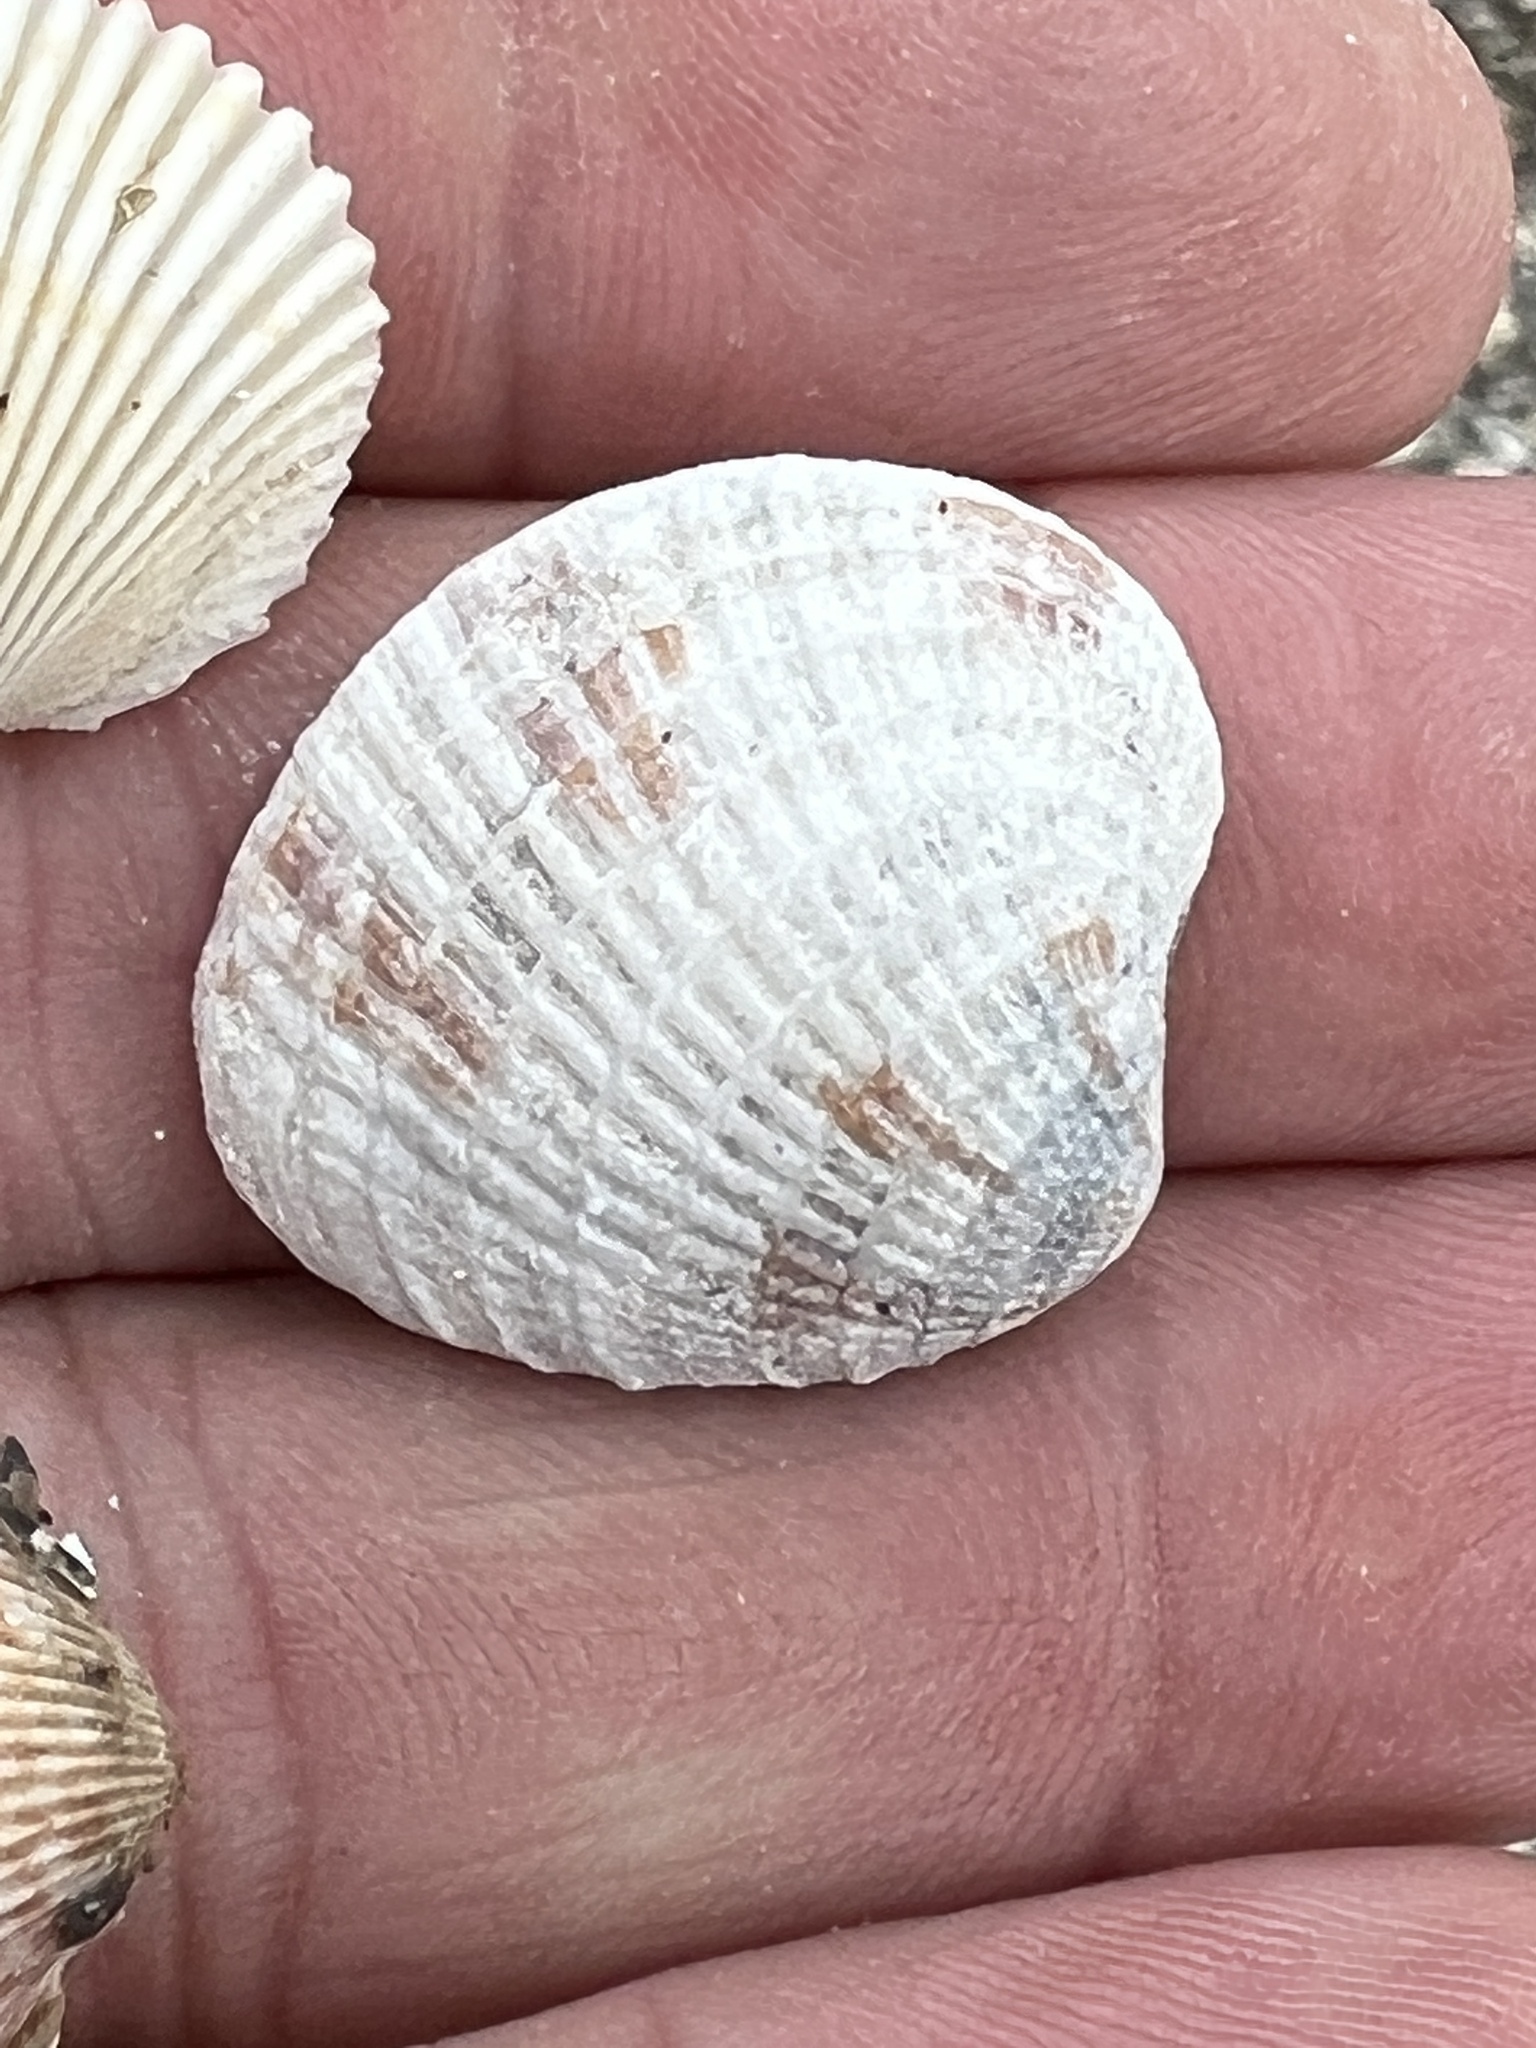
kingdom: Animalia
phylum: Mollusca
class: Bivalvia
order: Venerida
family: Veneridae
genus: Chione
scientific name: Chione elevata
